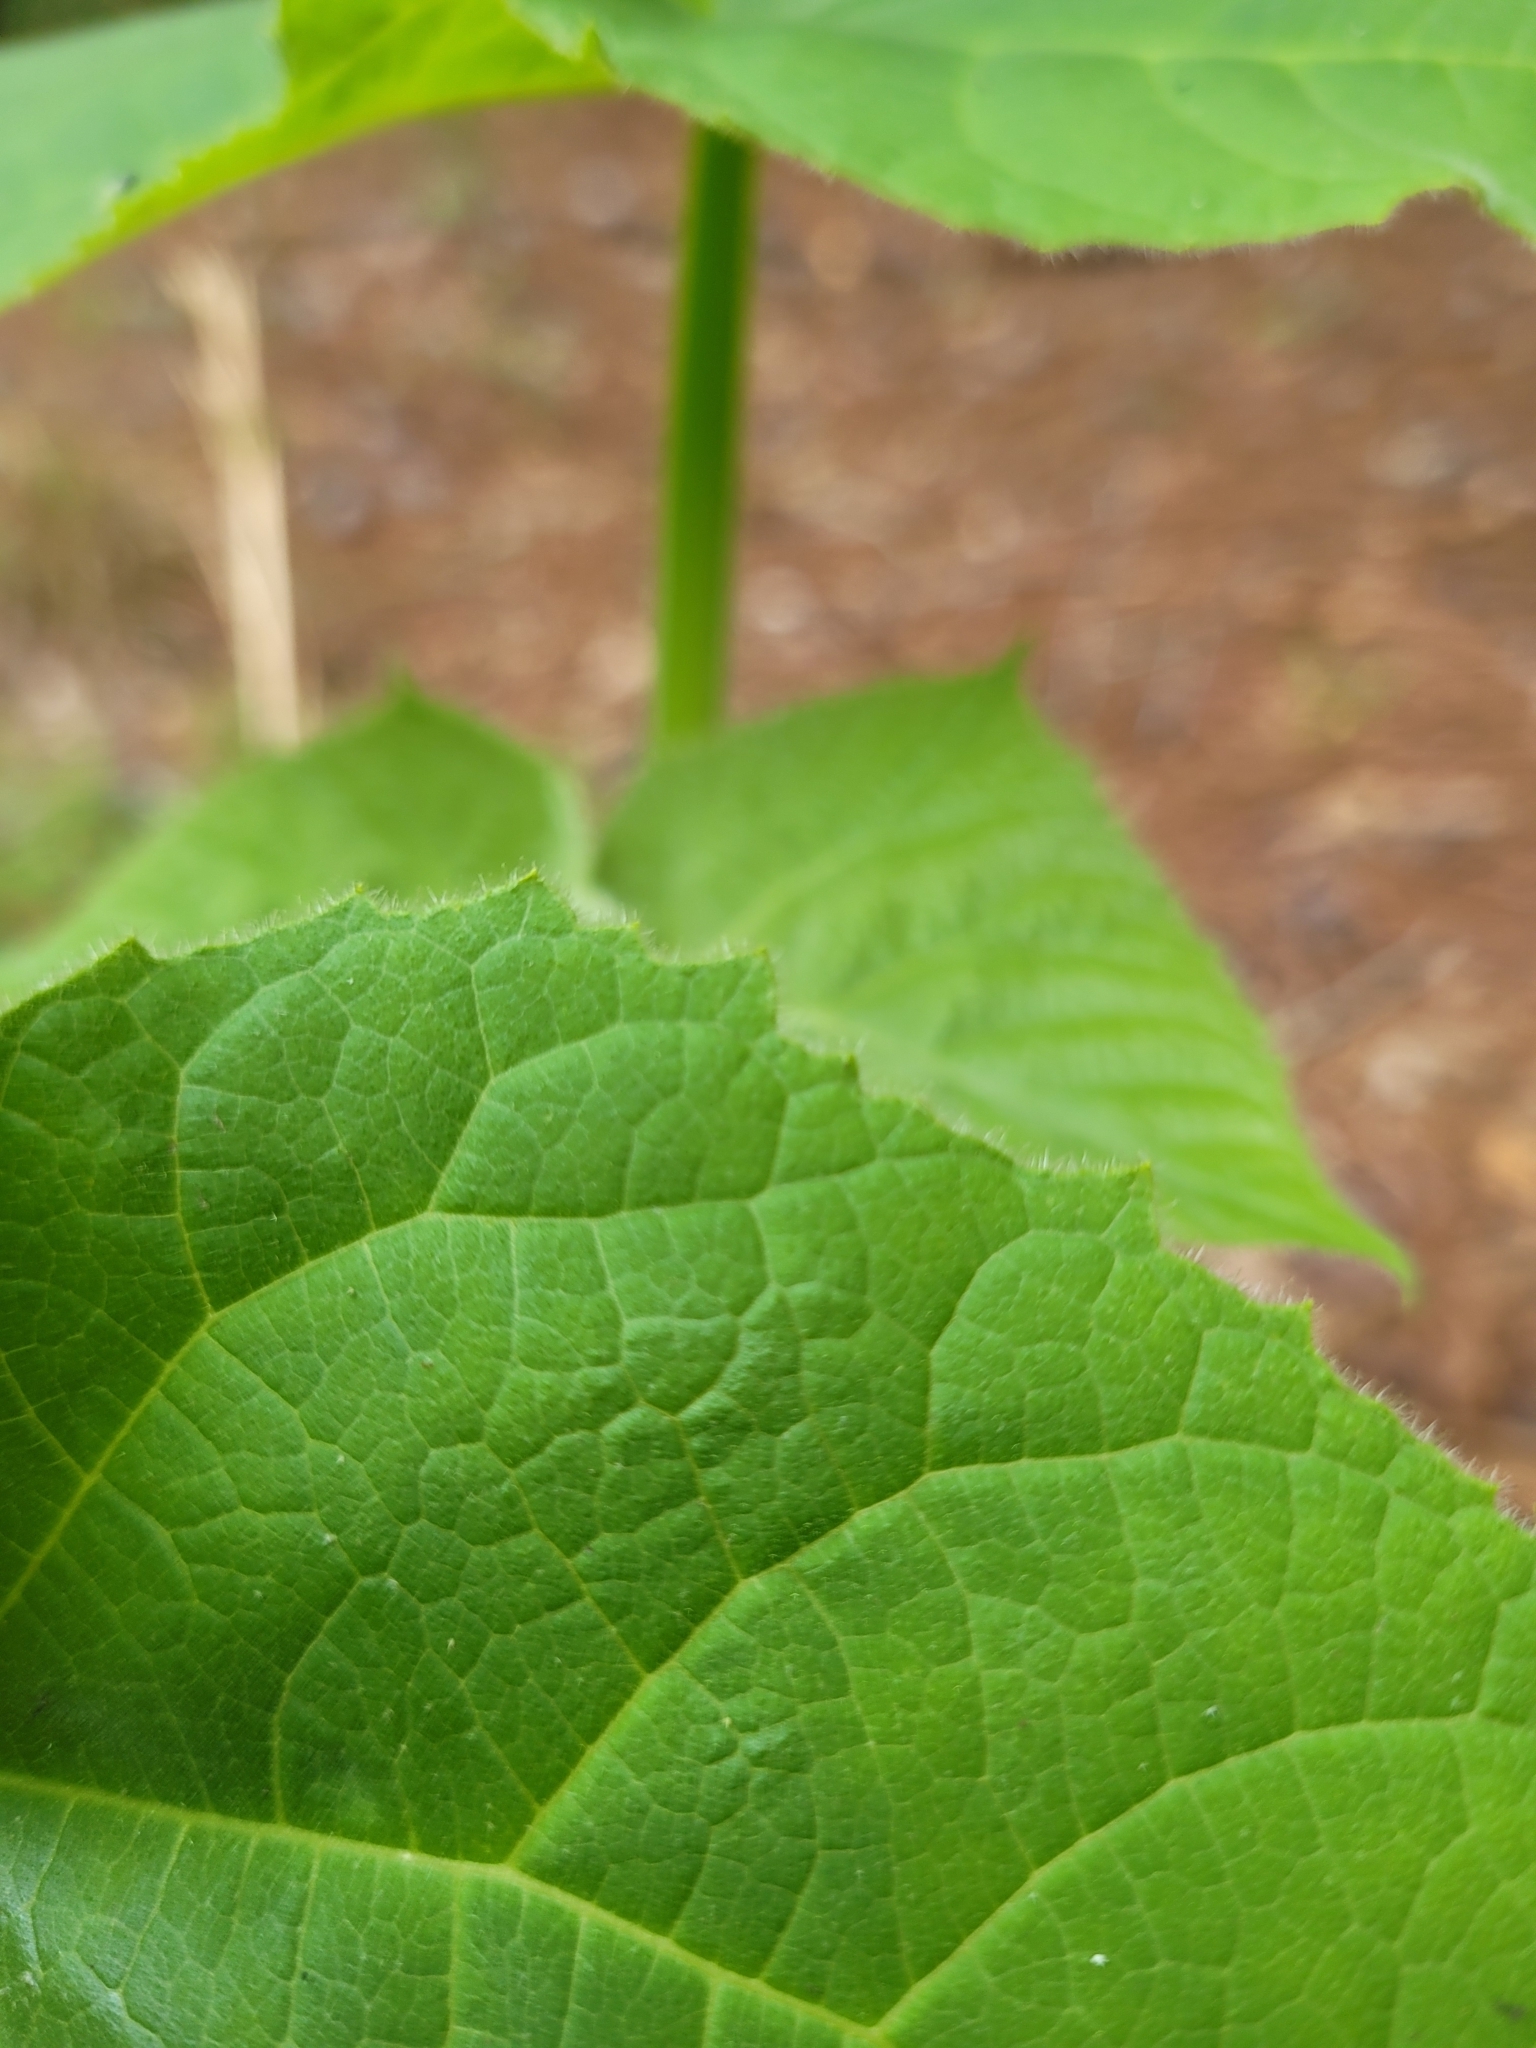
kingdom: Plantae
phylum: Tracheophyta
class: Magnoliopsida
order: Lamiales
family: Paulowniaceae
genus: Paulownia
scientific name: Paulownia tomentosa
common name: Foxglove-tree
